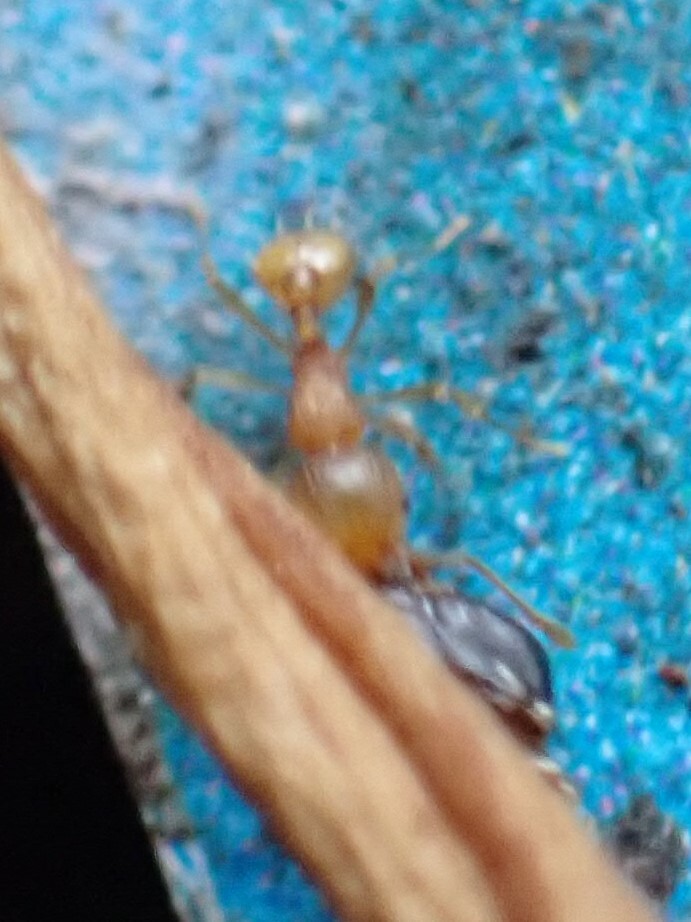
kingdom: Animalia
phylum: Arthropoda
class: Insecta
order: Hymenoptera
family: Formicidae
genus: Wasmannia
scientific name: Wasmannia auropunctata
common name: Little fire ant
